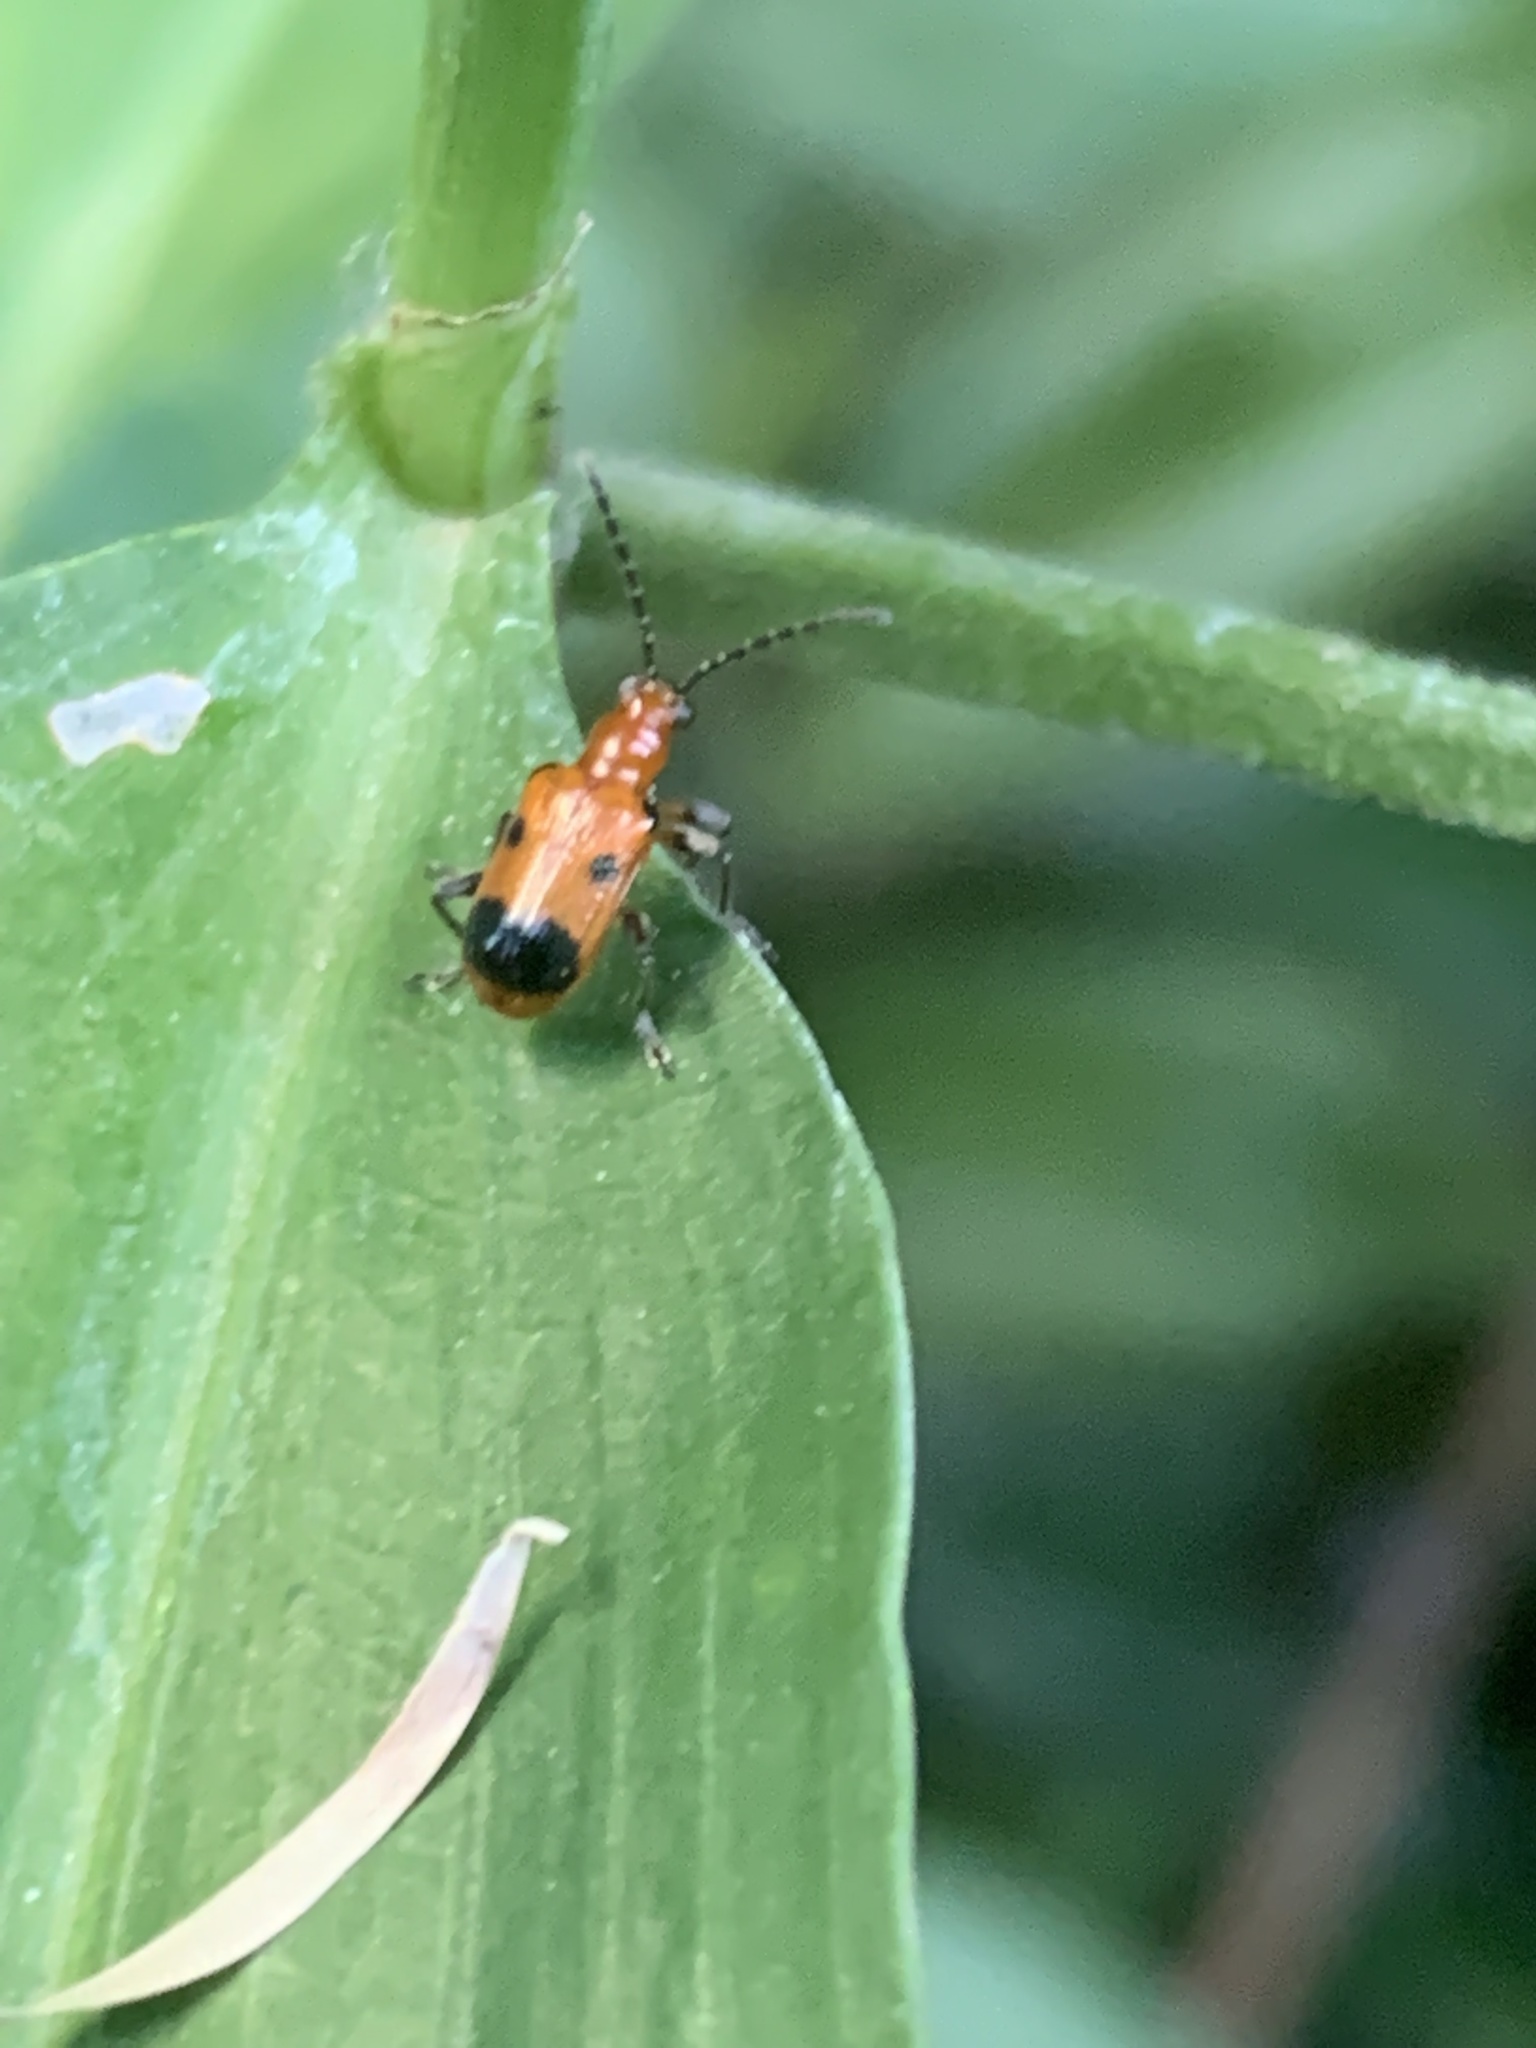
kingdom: Animalia
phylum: Arthropoda
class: Insecta
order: Coleoptera
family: Chrysomelidae
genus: Neolema
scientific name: Neolema dorsalis
